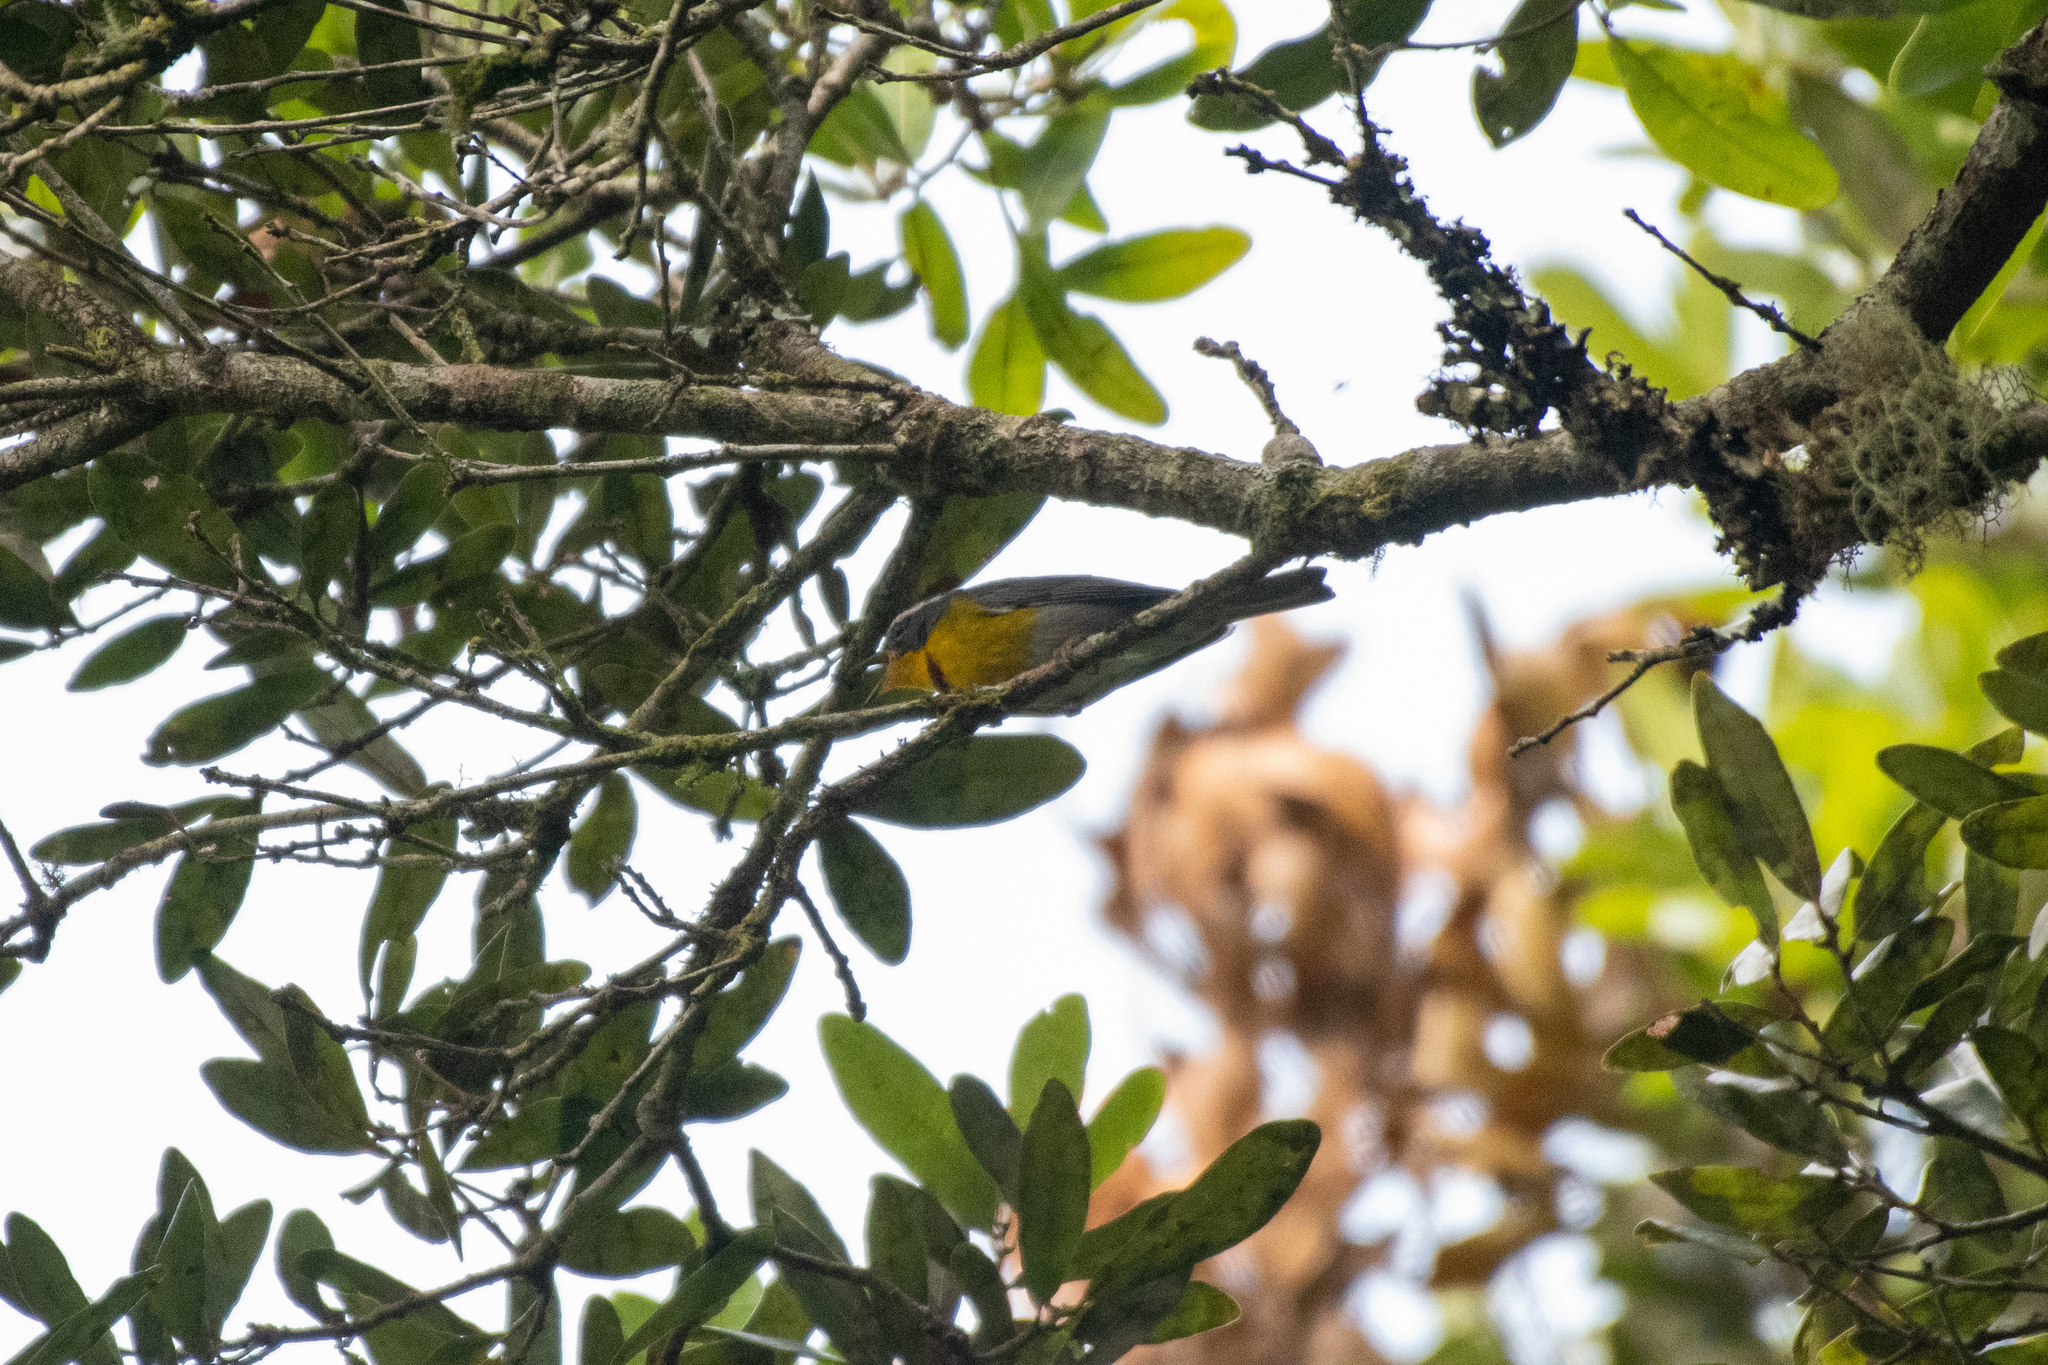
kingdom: Animalia
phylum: Chordata
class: Aves
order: Passeriformes
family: Parulidae
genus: Oreothlypis
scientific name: Oreothlypis superciliosa
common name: Crescent-chested warbler
